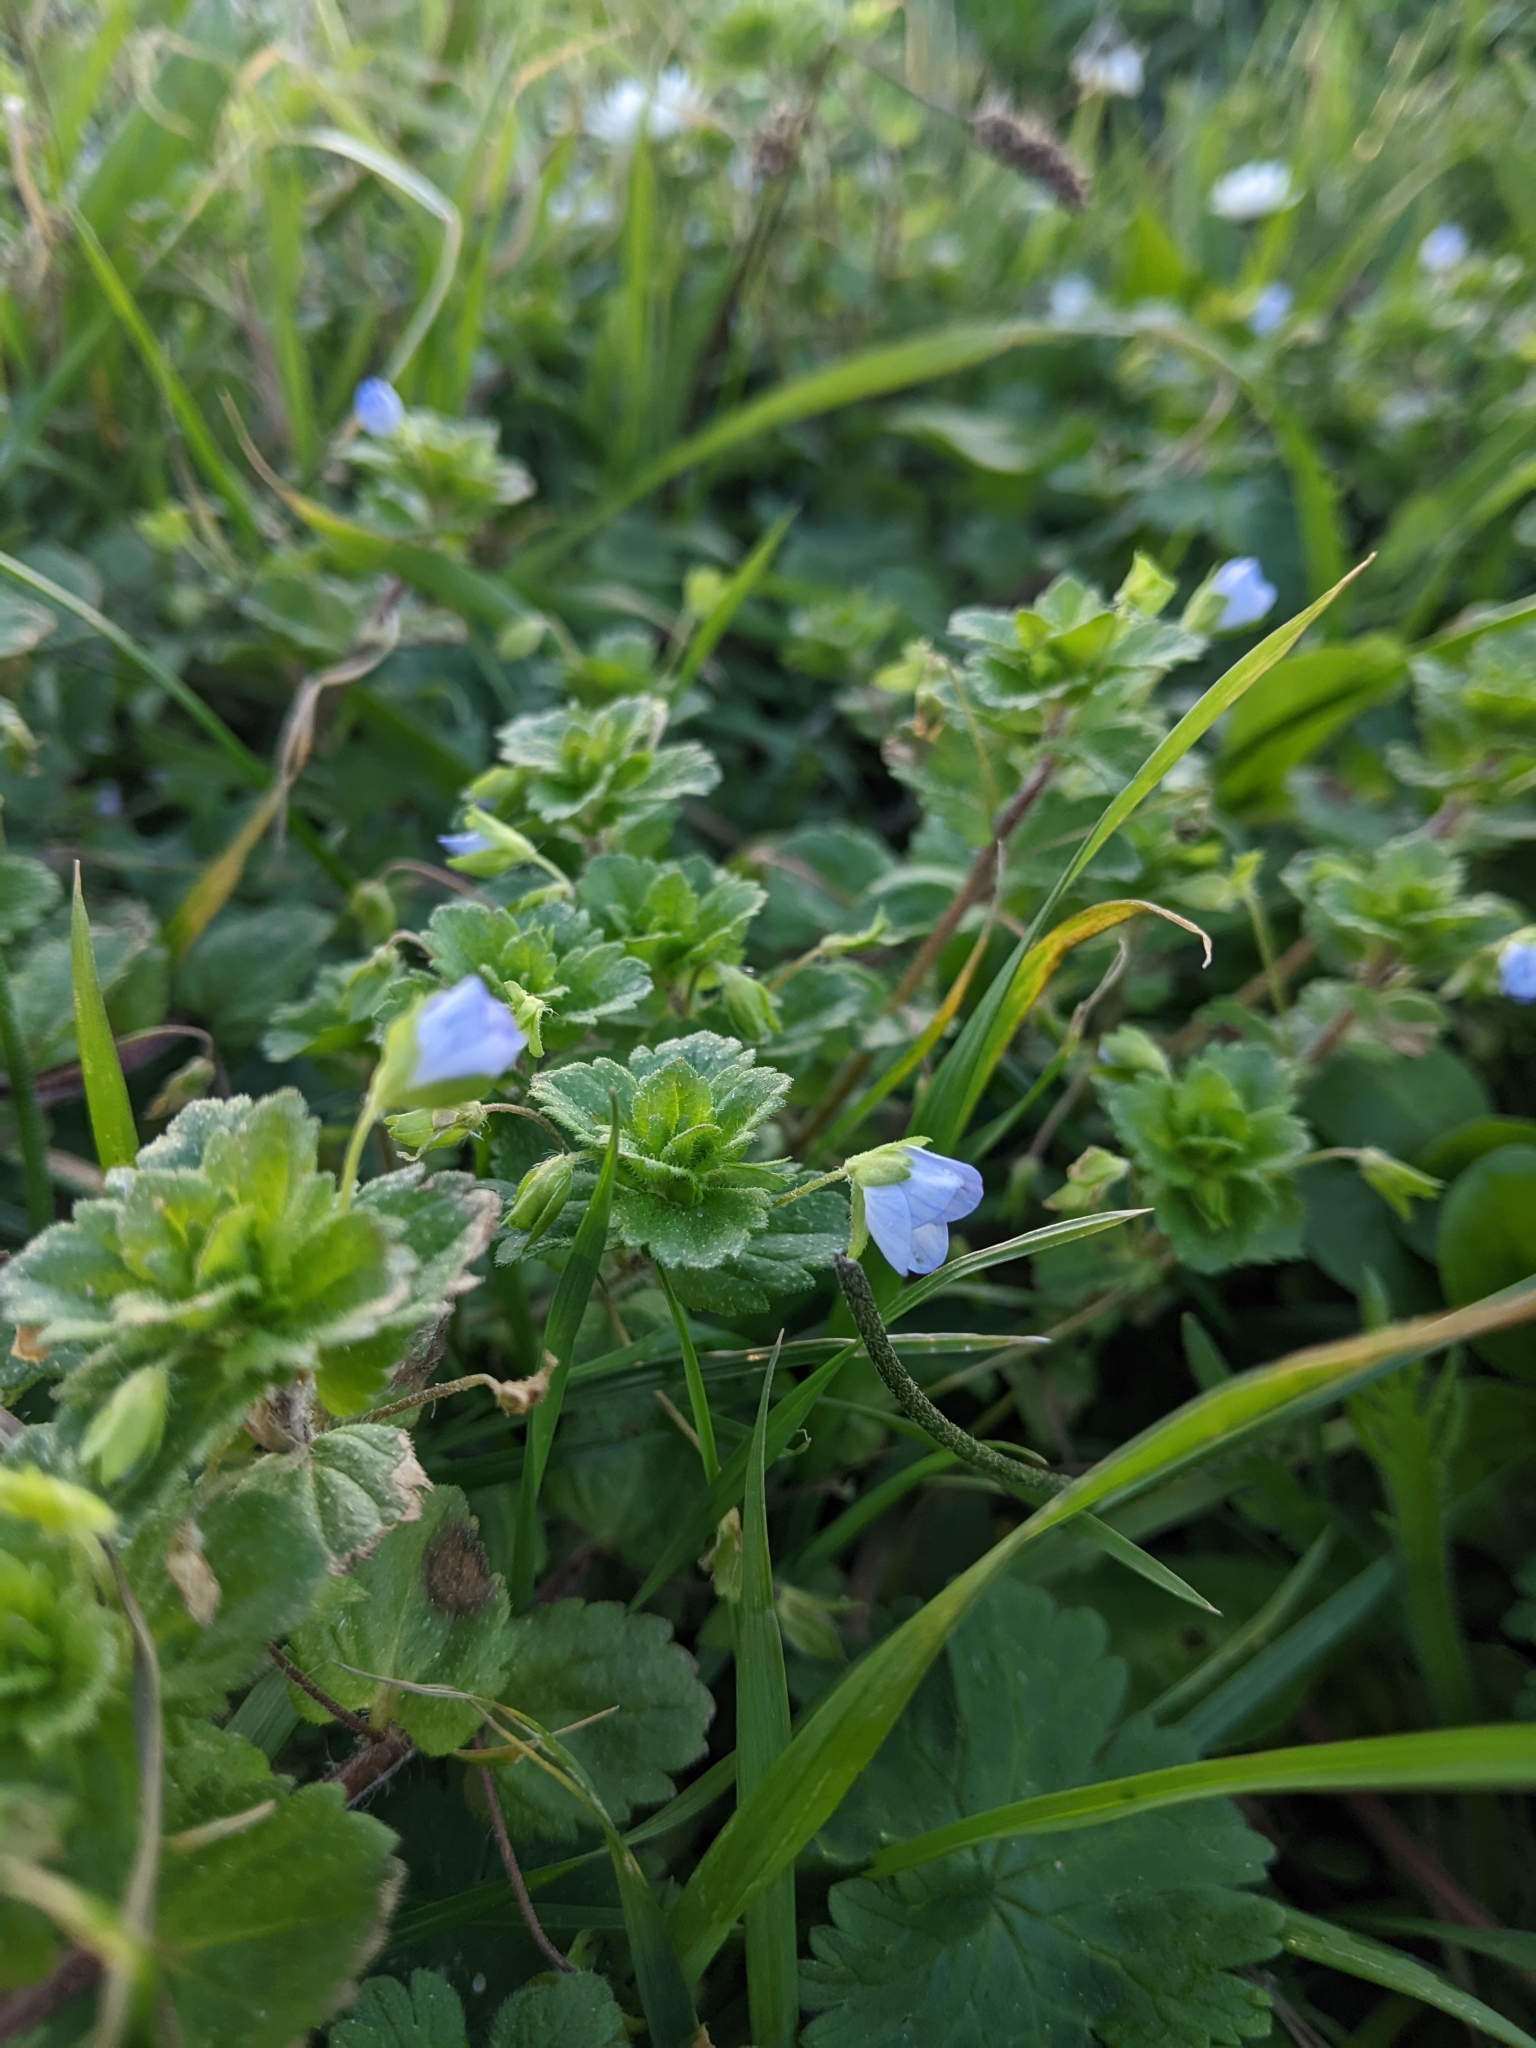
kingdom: Plantae
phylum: Tracheophyta
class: Magnoliopsida
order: Lamiales
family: Plantaginaceae
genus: Veronica
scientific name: Veronica persica
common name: Common field-speedwell
